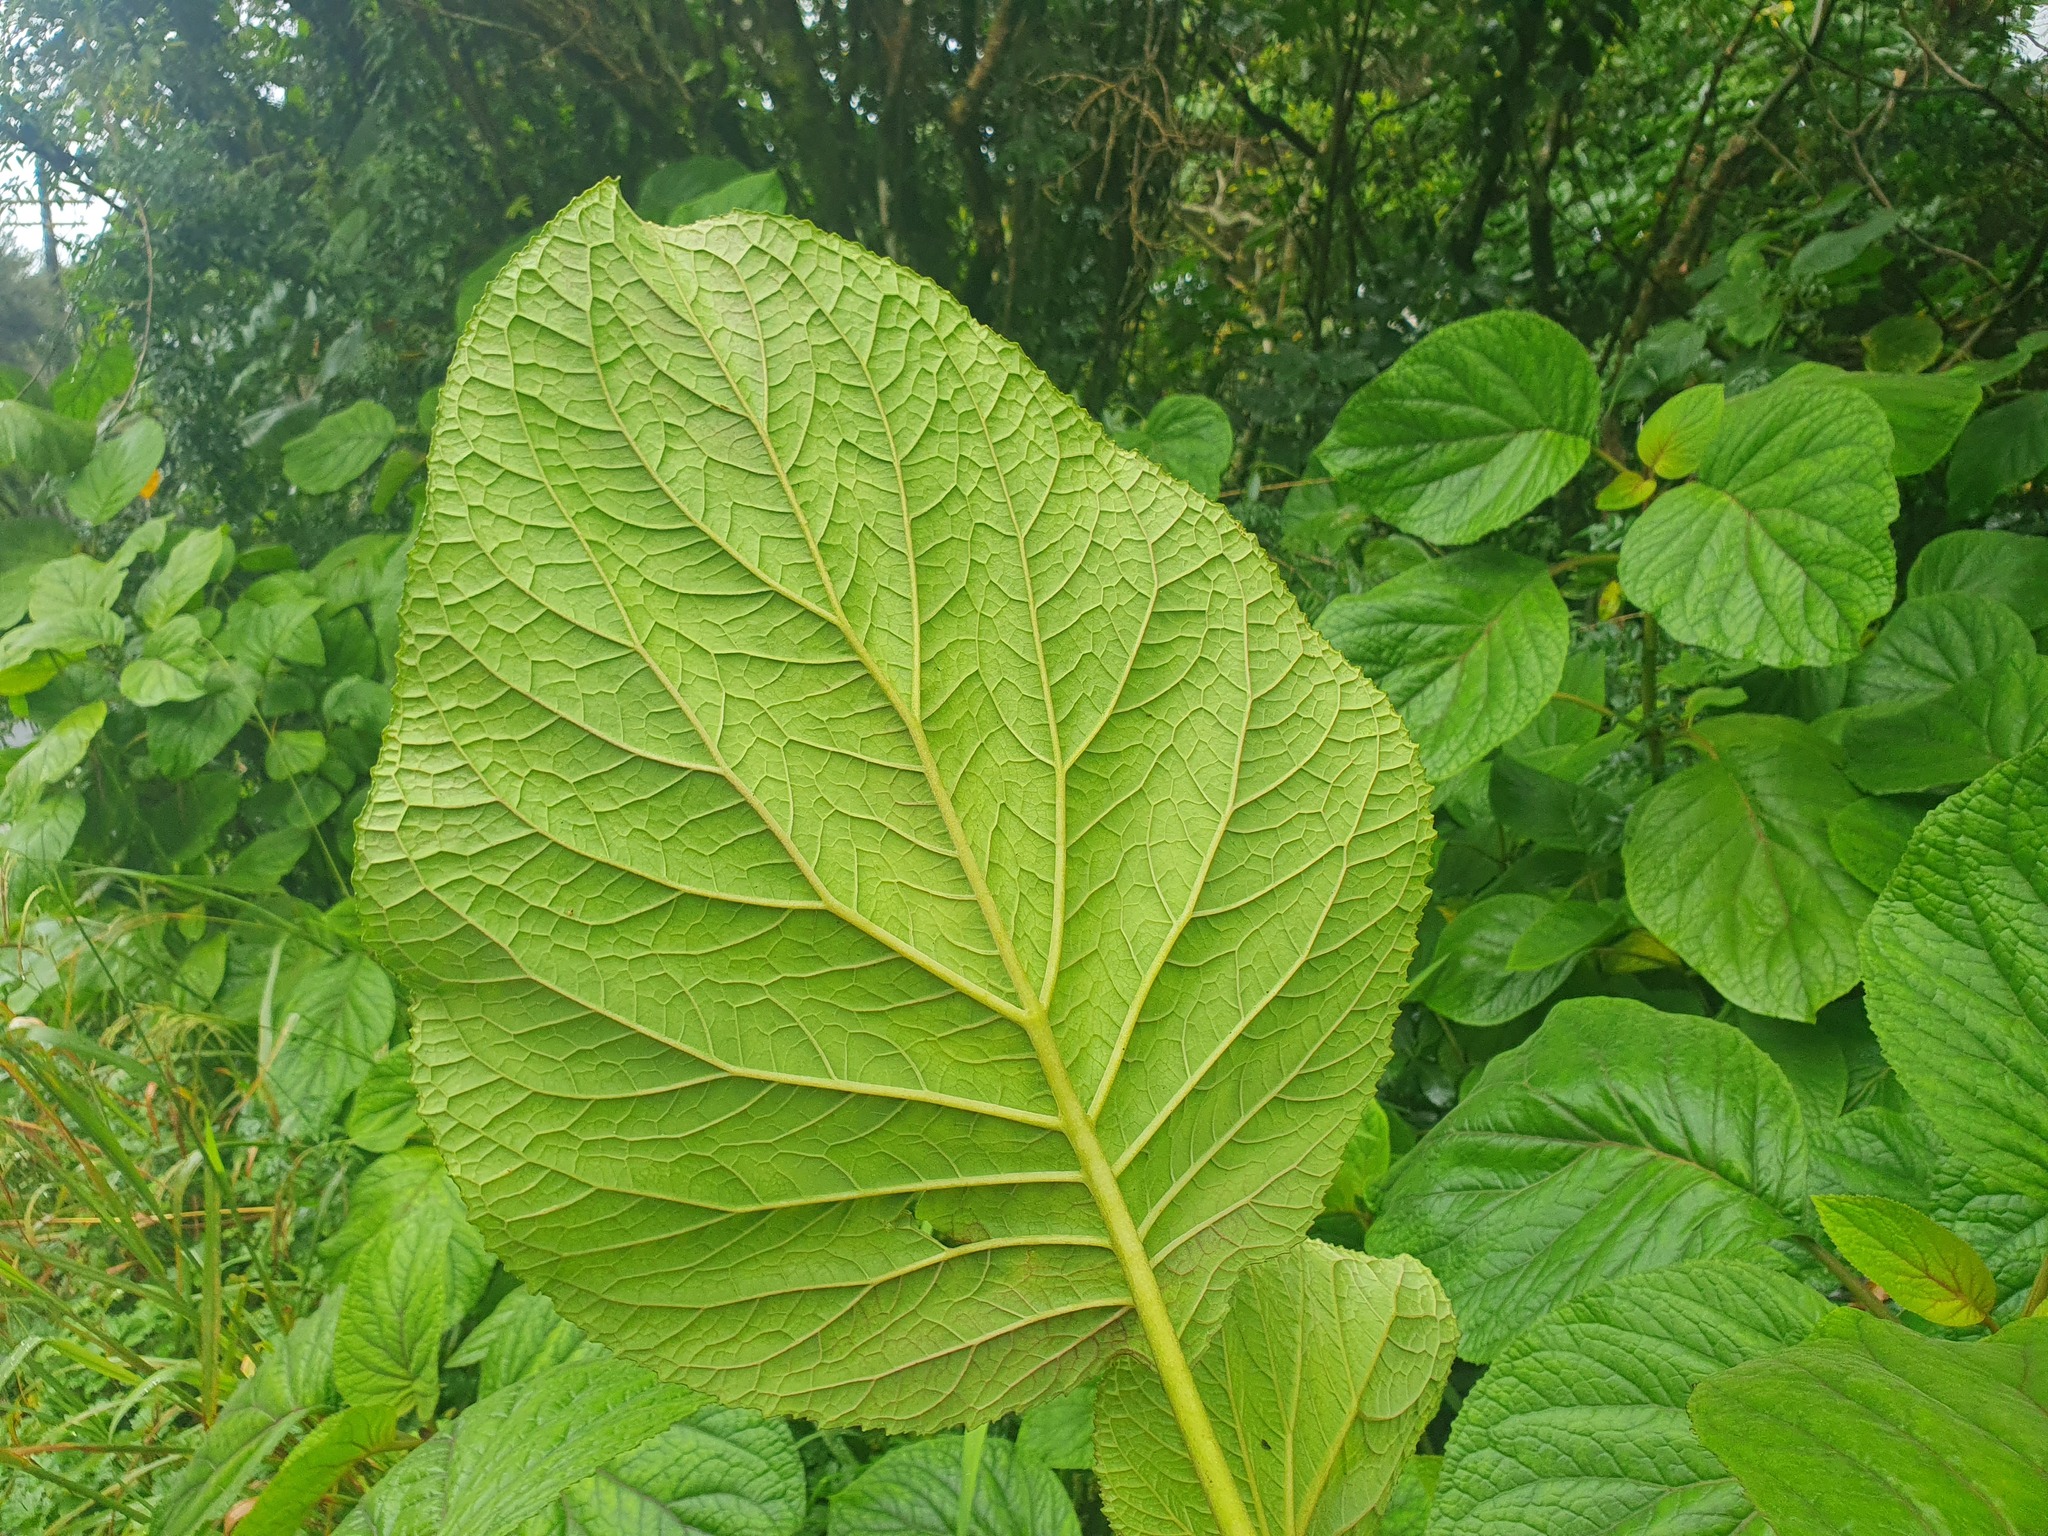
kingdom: Plantae
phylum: Tracheophyta
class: Magnoliopsida
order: Asterales
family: Asteraceae
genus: Bartlettina
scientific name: Bartlettina sordida
